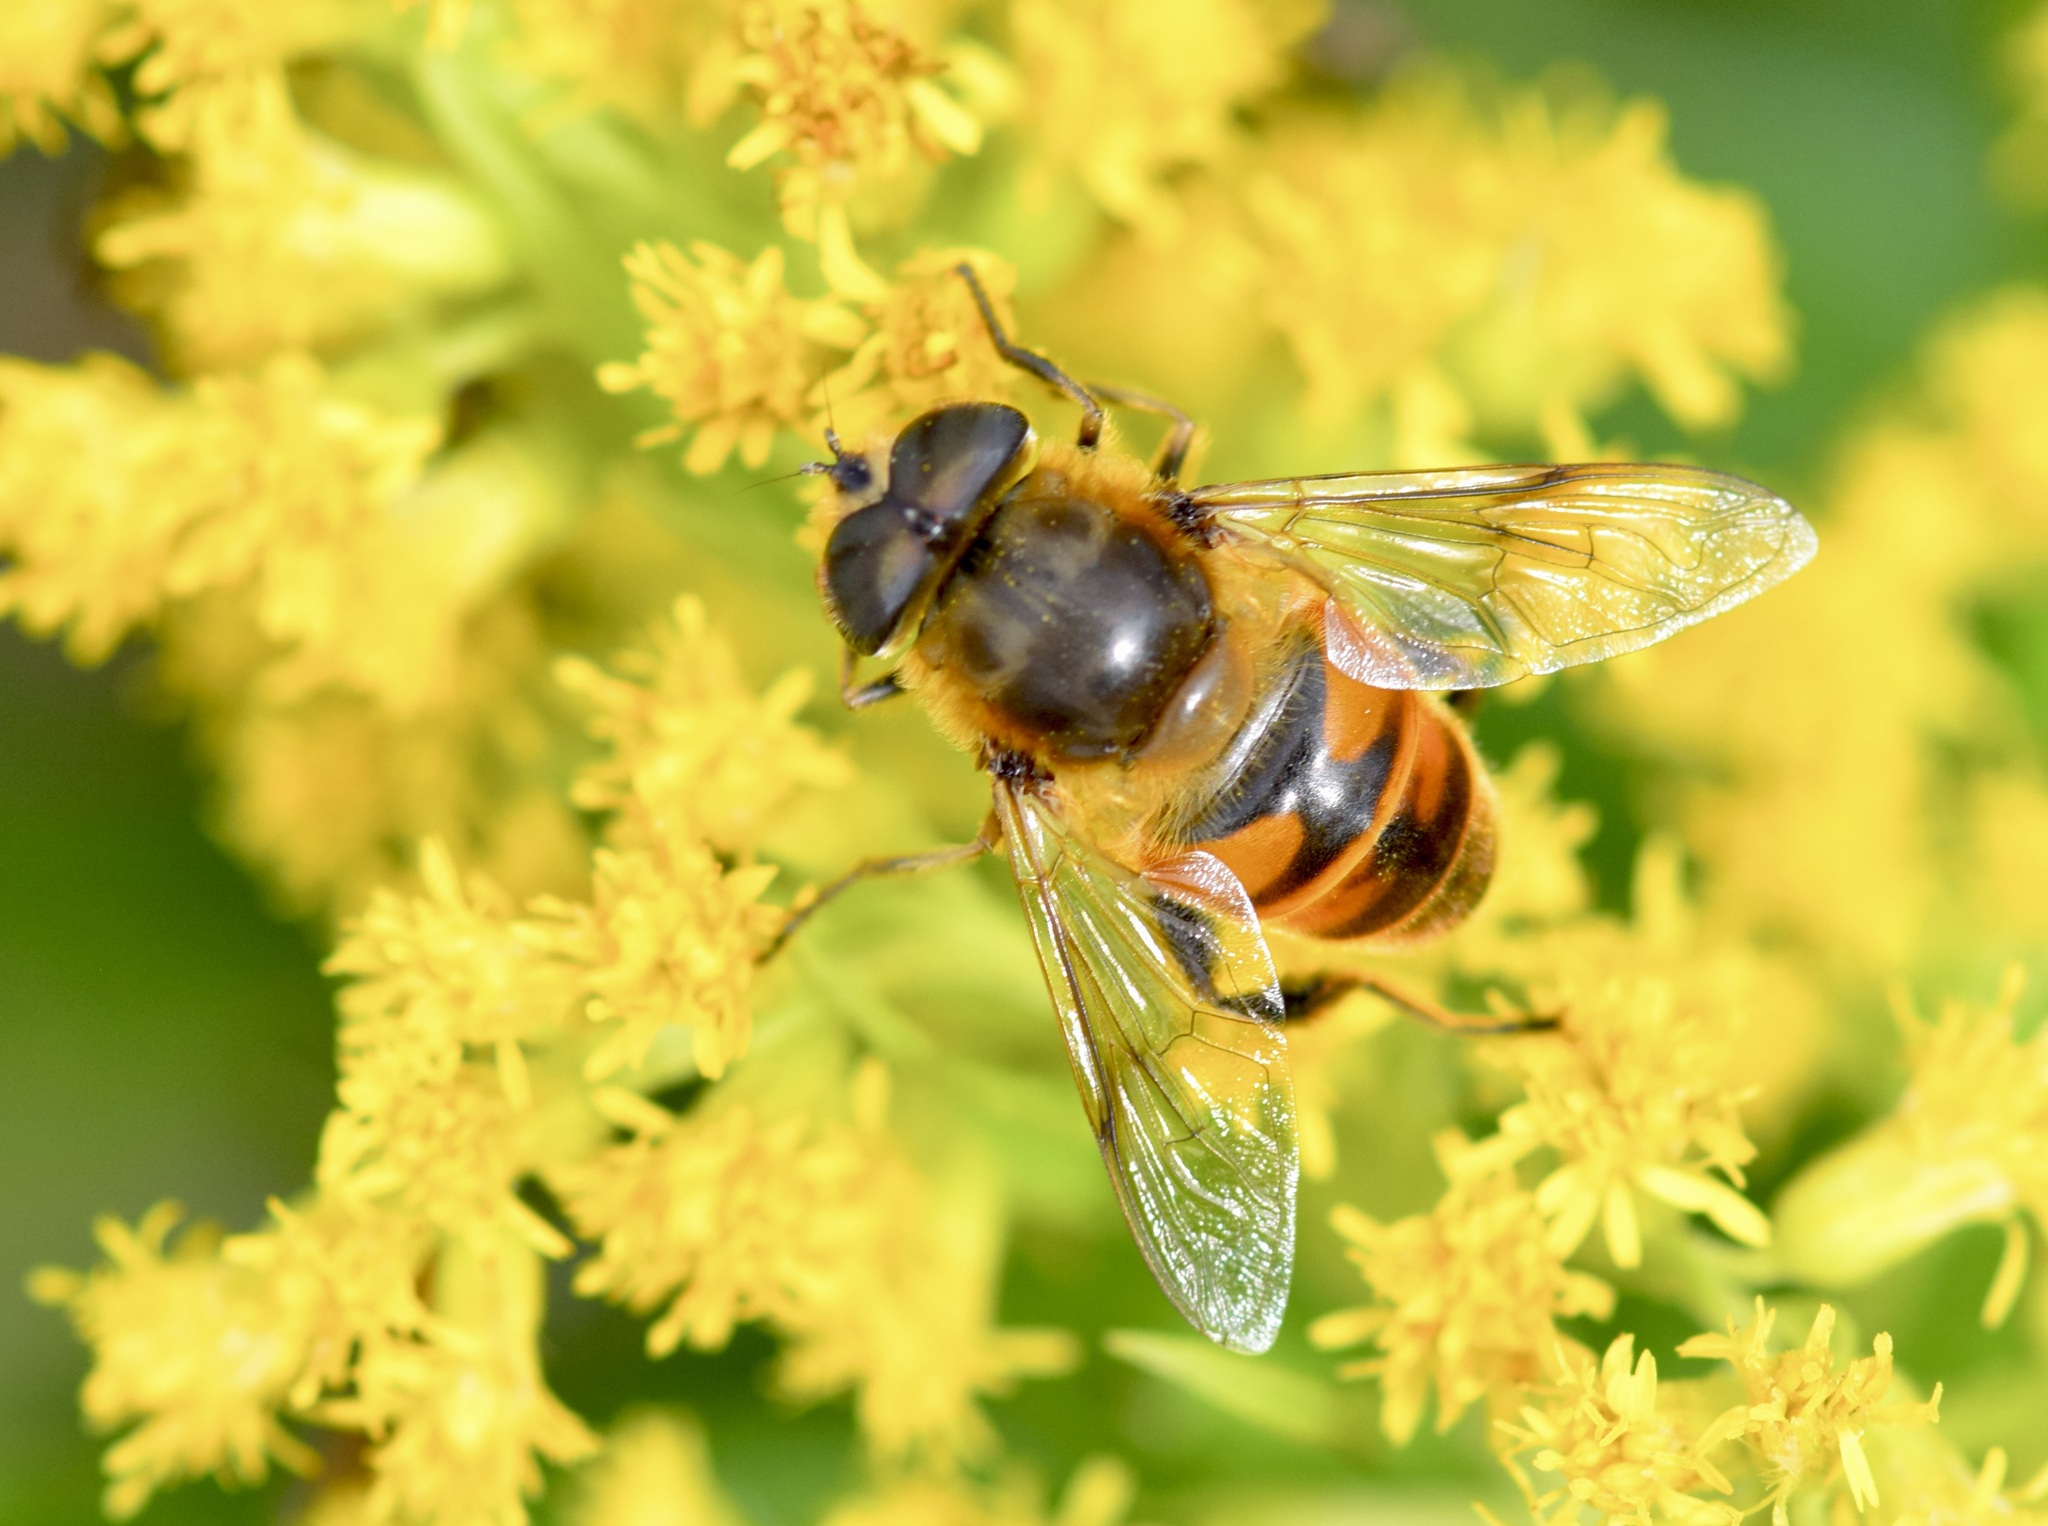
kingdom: Animalia
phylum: Arthropoda
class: Insecta
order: Diptera
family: Syrphidae
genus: Eristalis
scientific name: Eristalis tenax
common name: Drone fly
